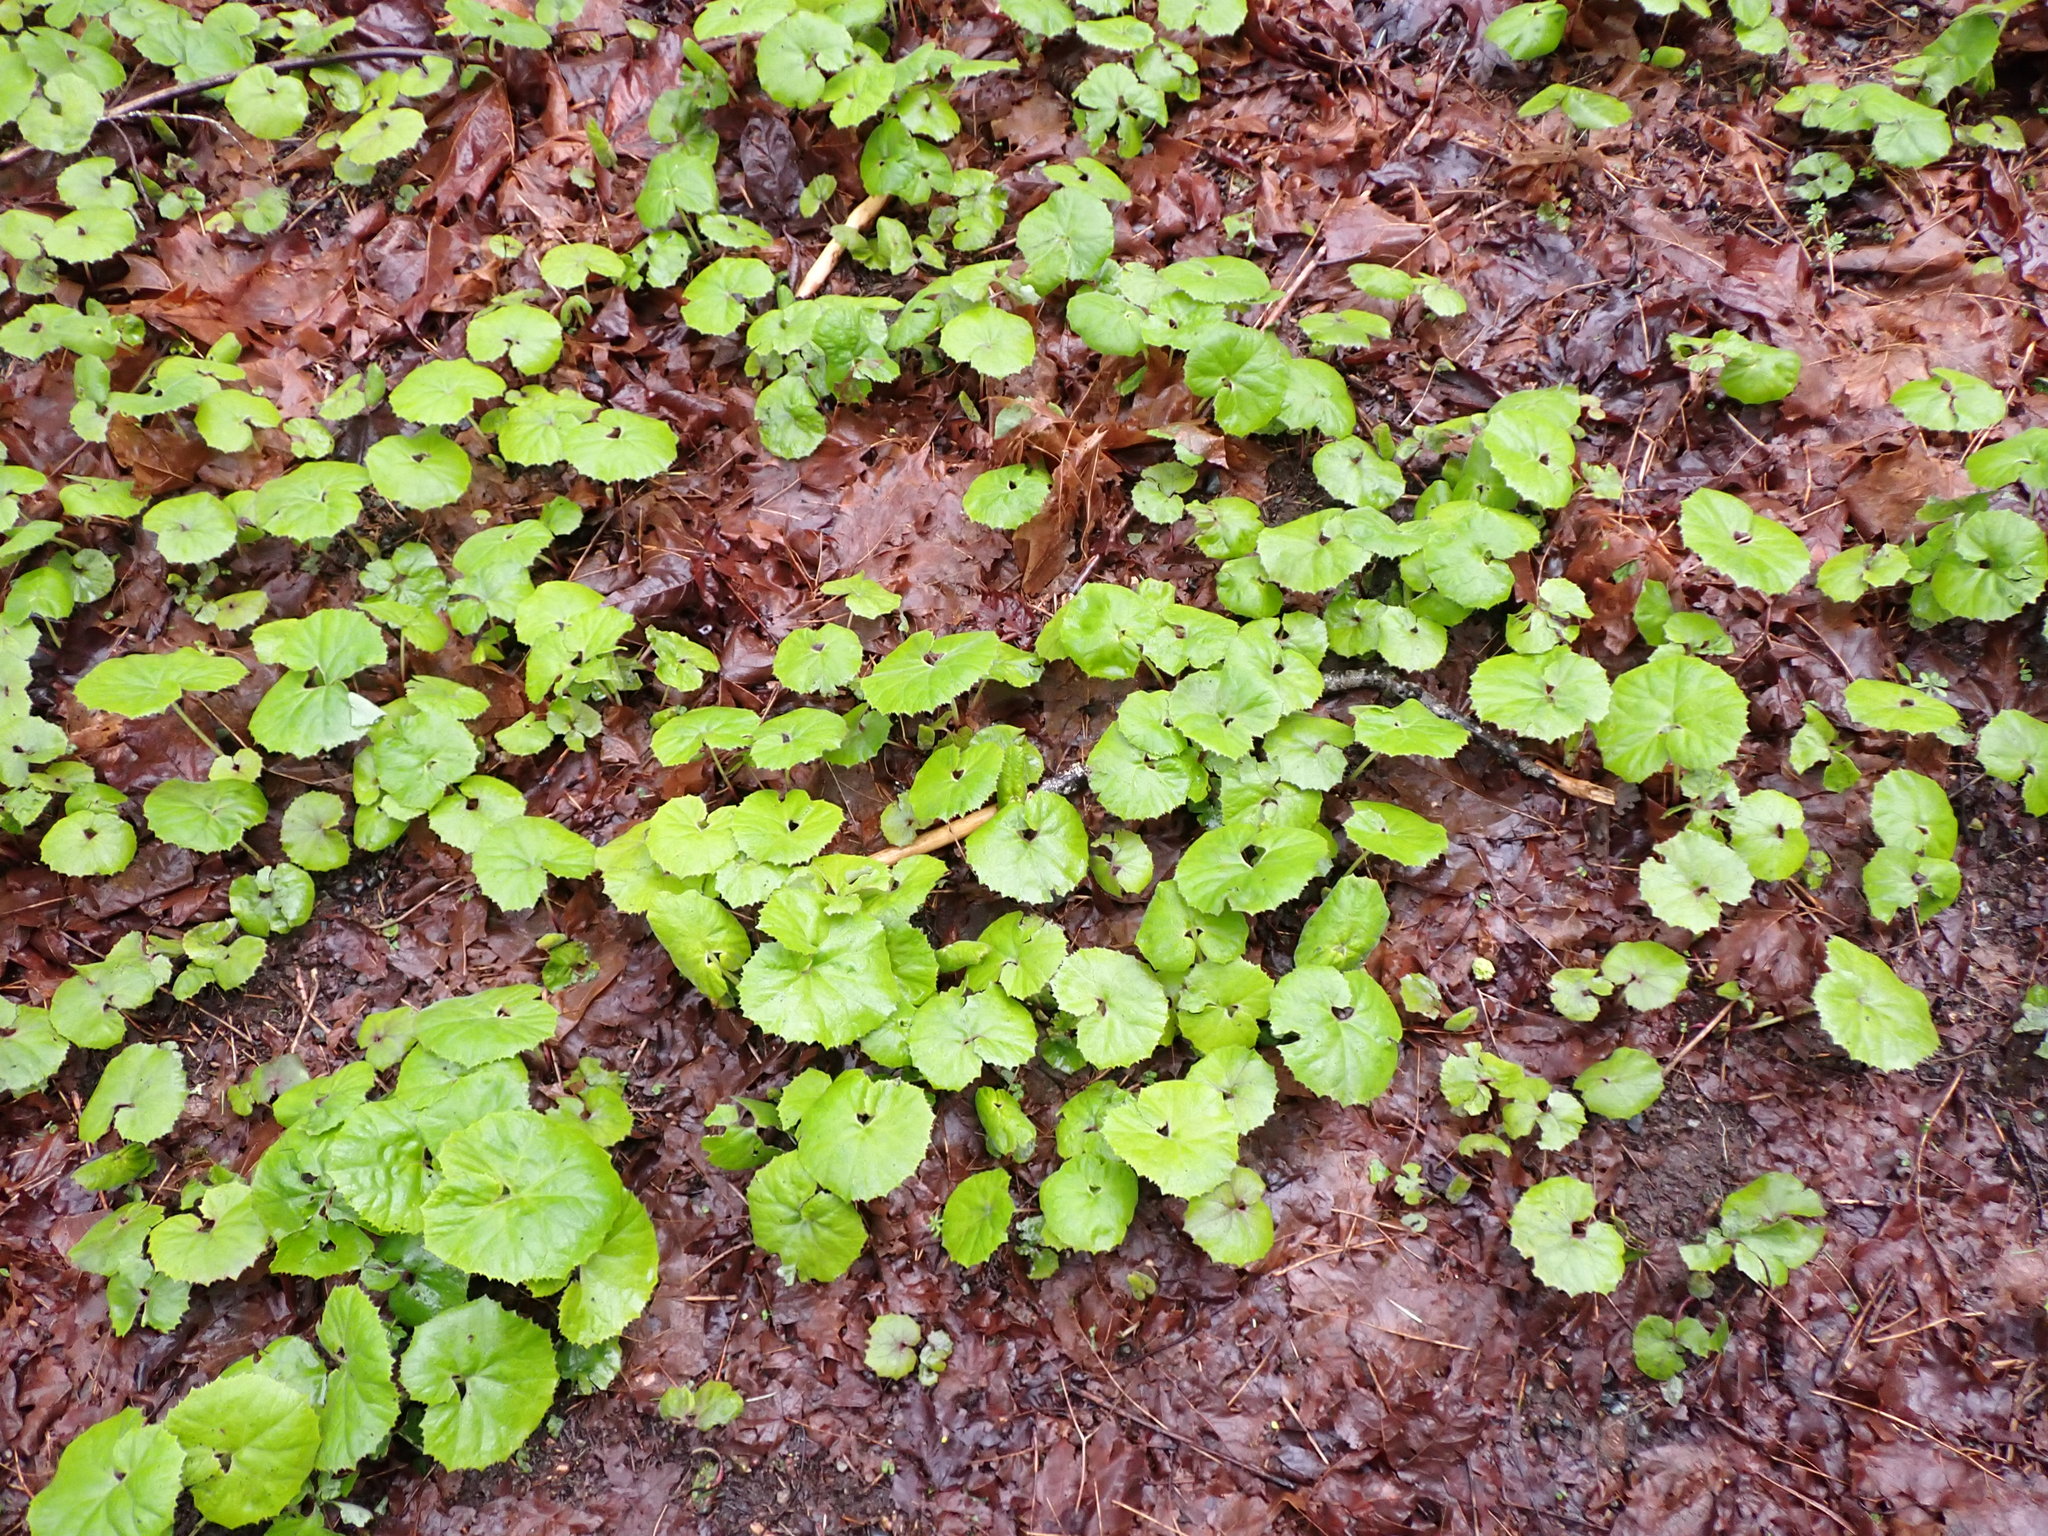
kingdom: Plantae
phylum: Tracheophyta
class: Magnoliopsida
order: Asterales
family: Asteraceae
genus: Petasites
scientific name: Petasites japonicus
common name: Giant butterbur
